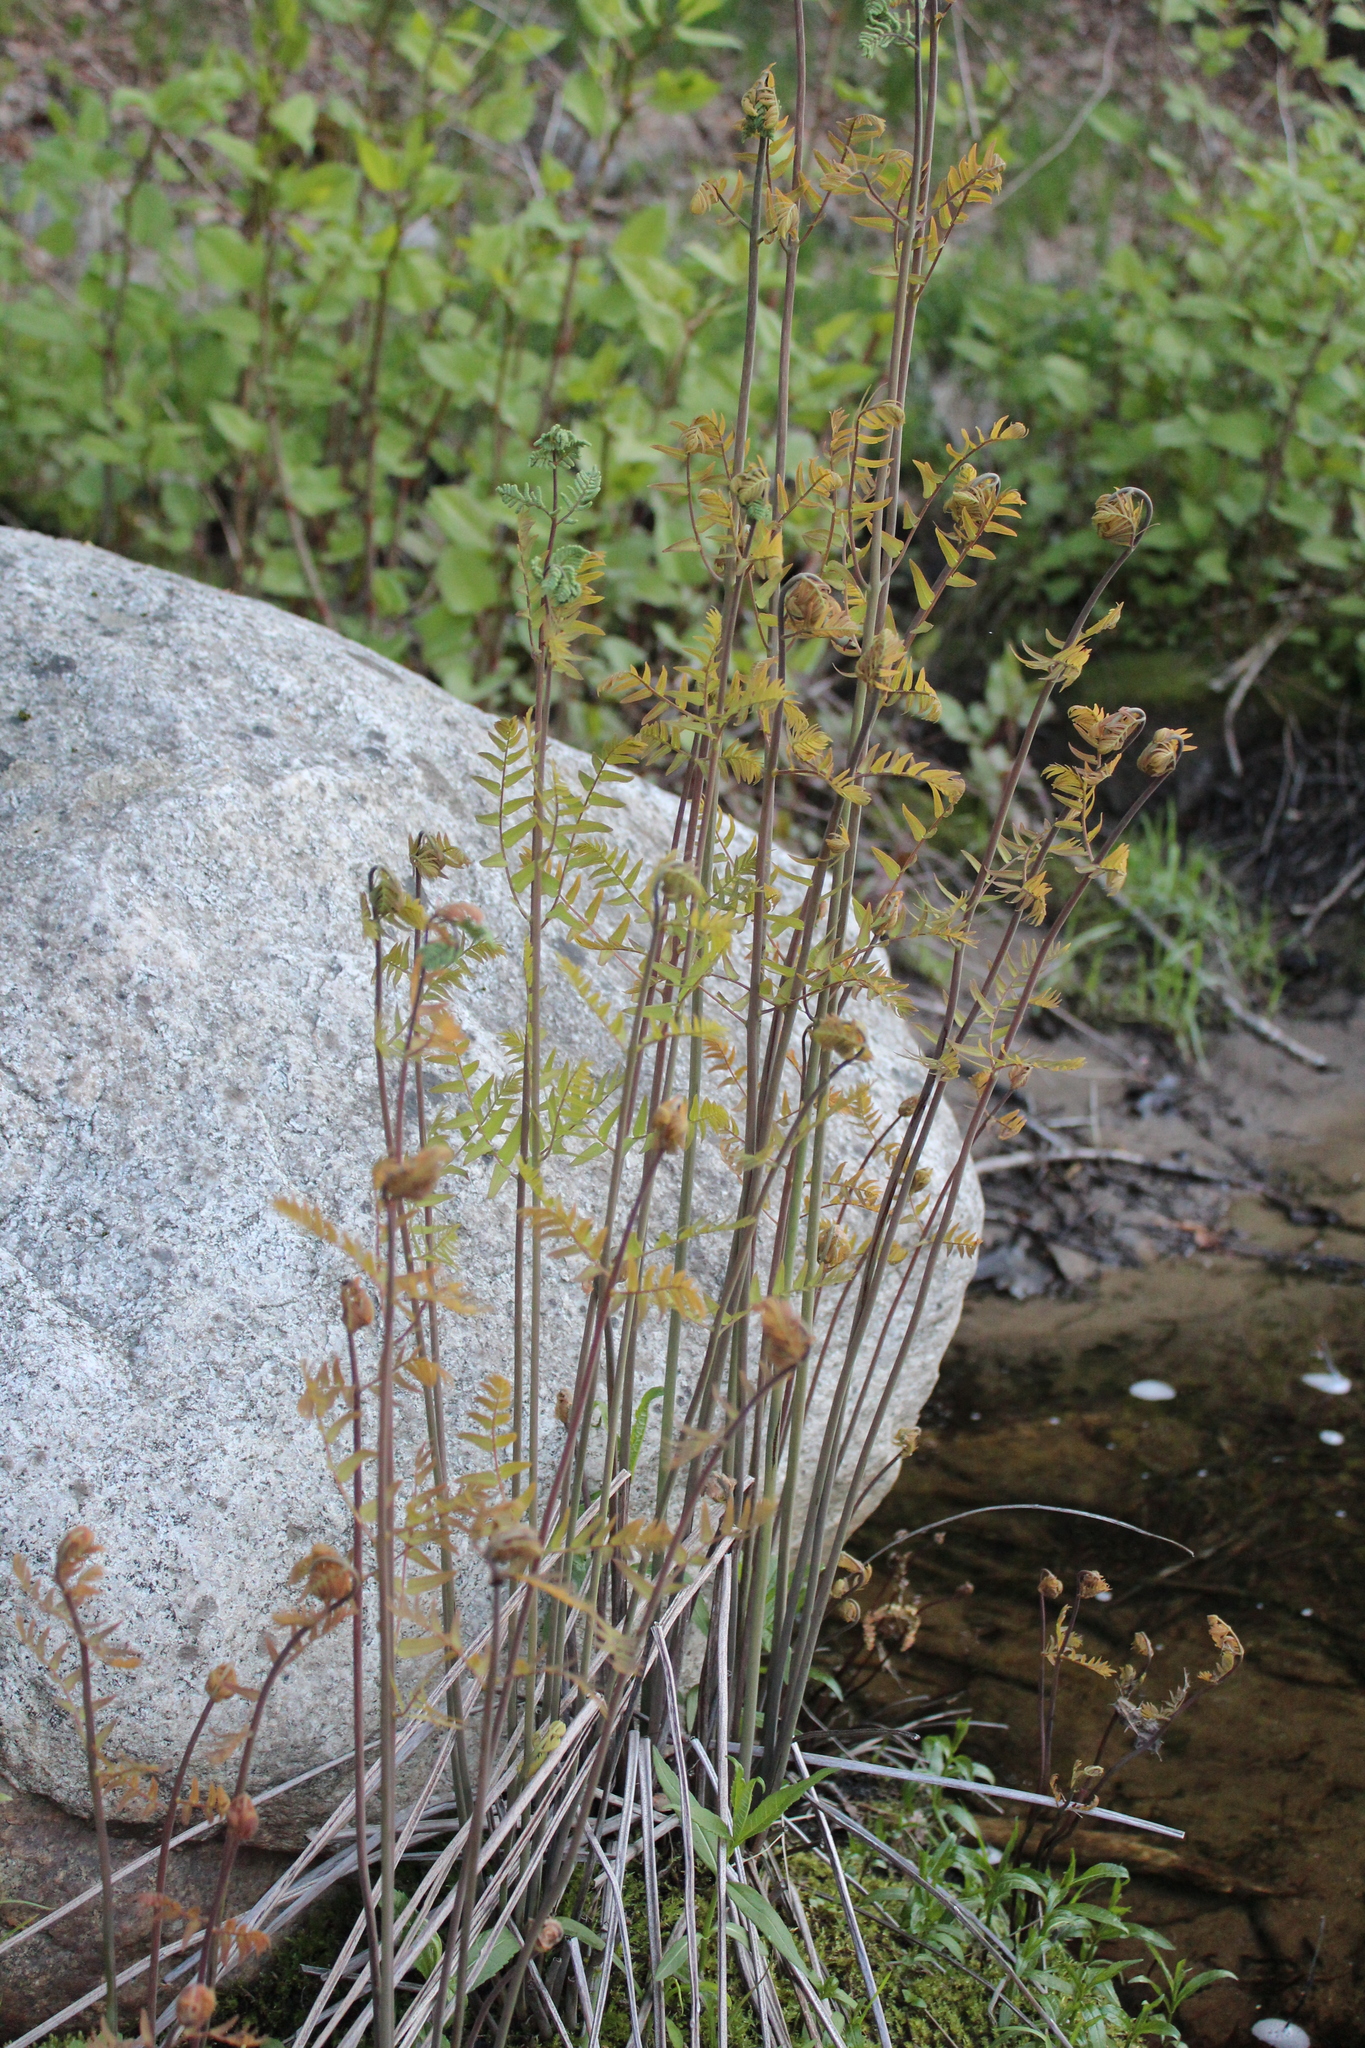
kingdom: Plantae
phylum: Tracheophyta
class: Polypodiopsida
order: Osmundales
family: Osmundaceae
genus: Osmunda
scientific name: Osmunda spectabilis
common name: American royal fern
